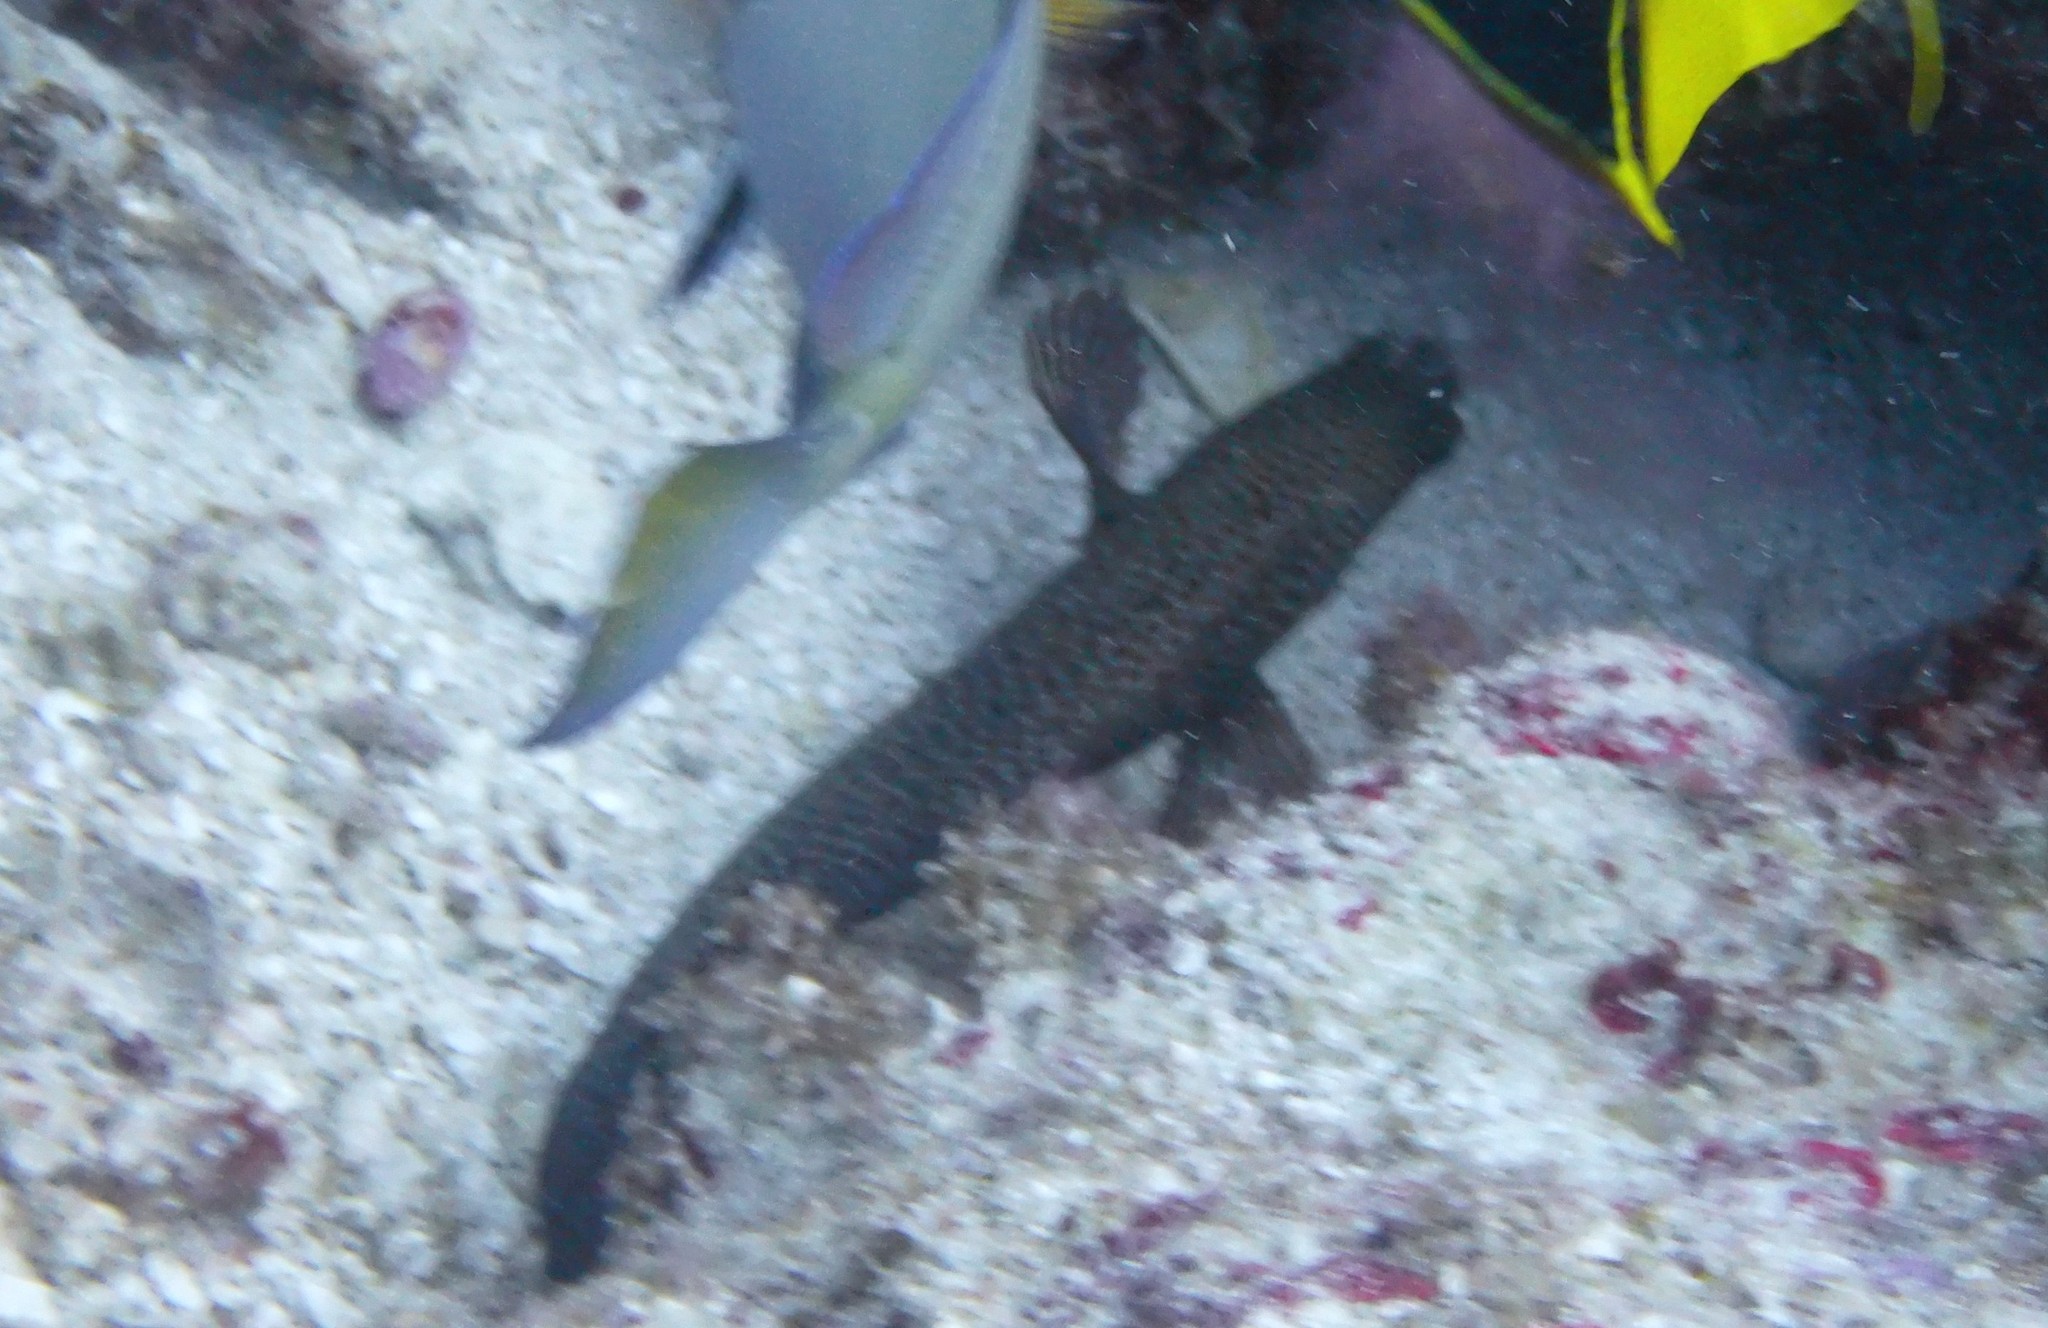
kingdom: Animalia
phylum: Chordata
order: Perciformes
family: Serranidae
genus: Cephalopholis
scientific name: Cephalopholis cruentata
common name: Graysby
